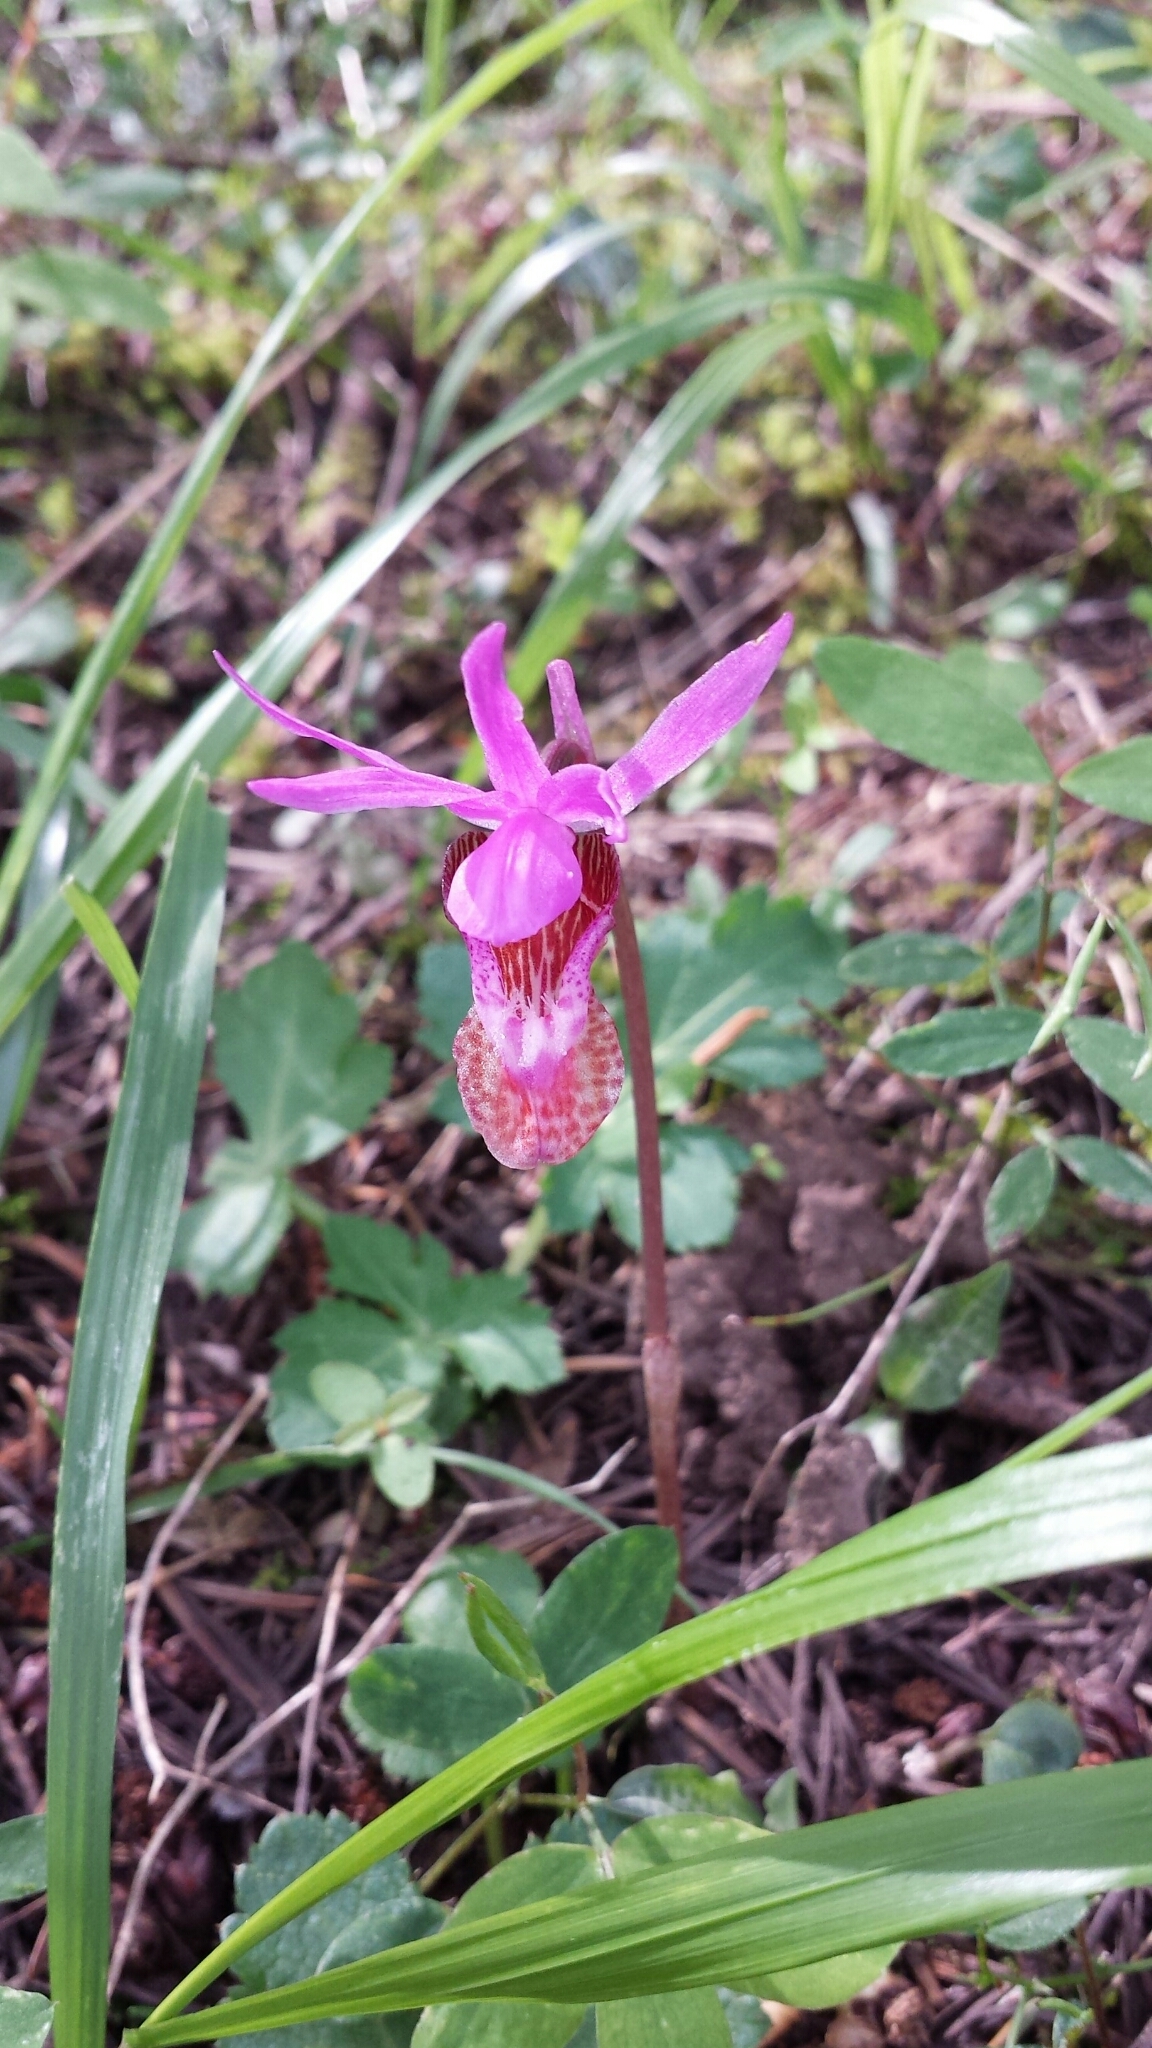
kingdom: Plantae
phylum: Tracheophyta
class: Liliopsida
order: Asparagales
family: Orchidaceae
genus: Calypso
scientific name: Calypso bulbosa
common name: Calypso
